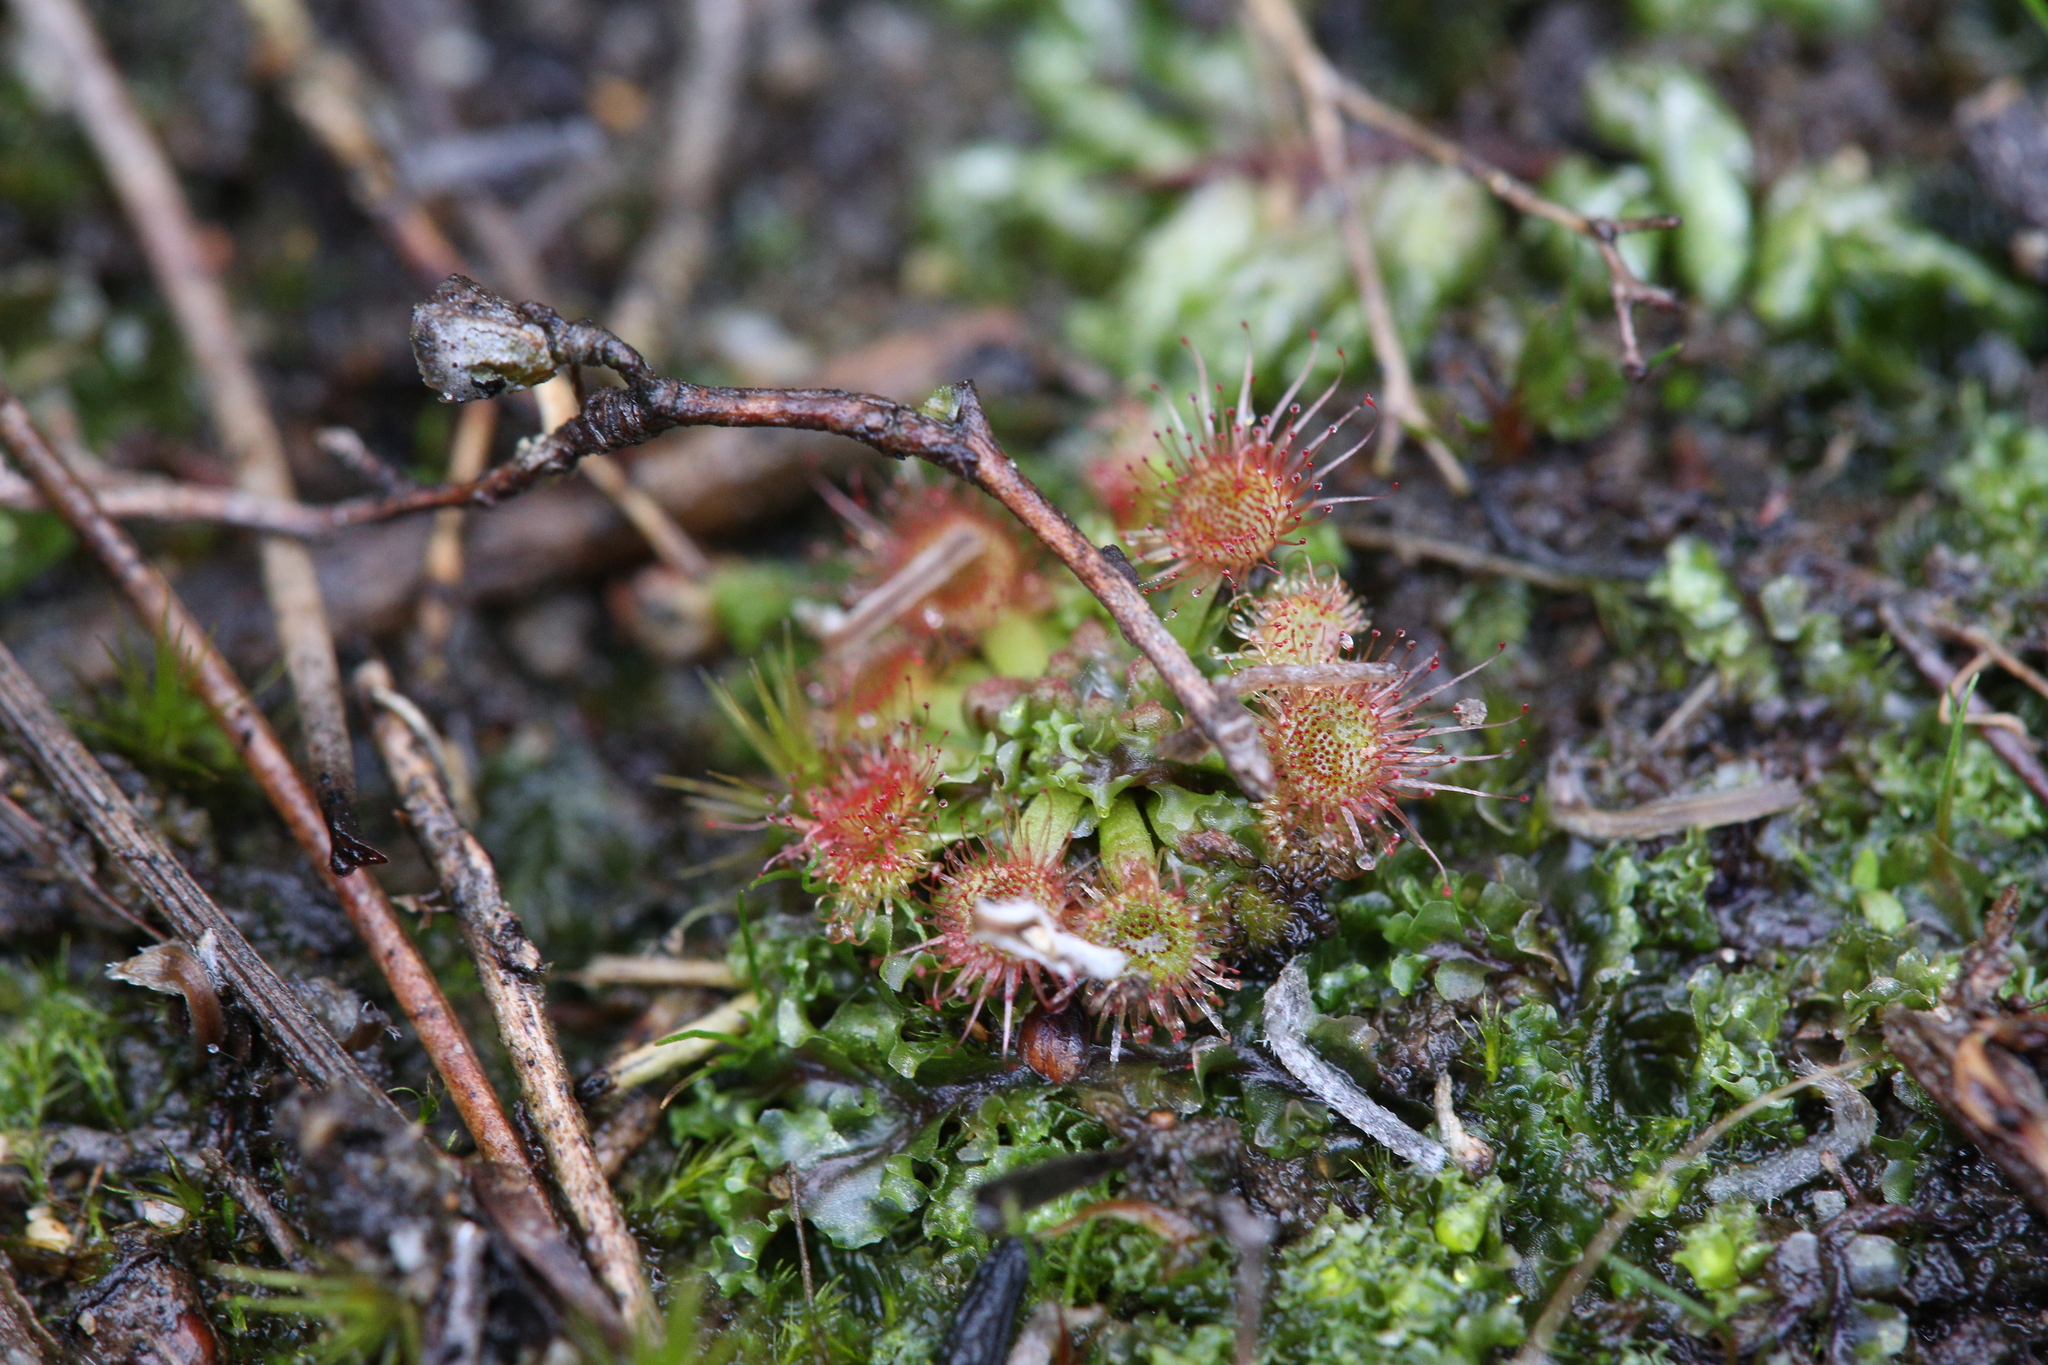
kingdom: Plantae
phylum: Tracheophyta
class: Magnoliopsida
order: Caryophyllales
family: Droseraceae
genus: Drosera
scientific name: Drosera mannii
